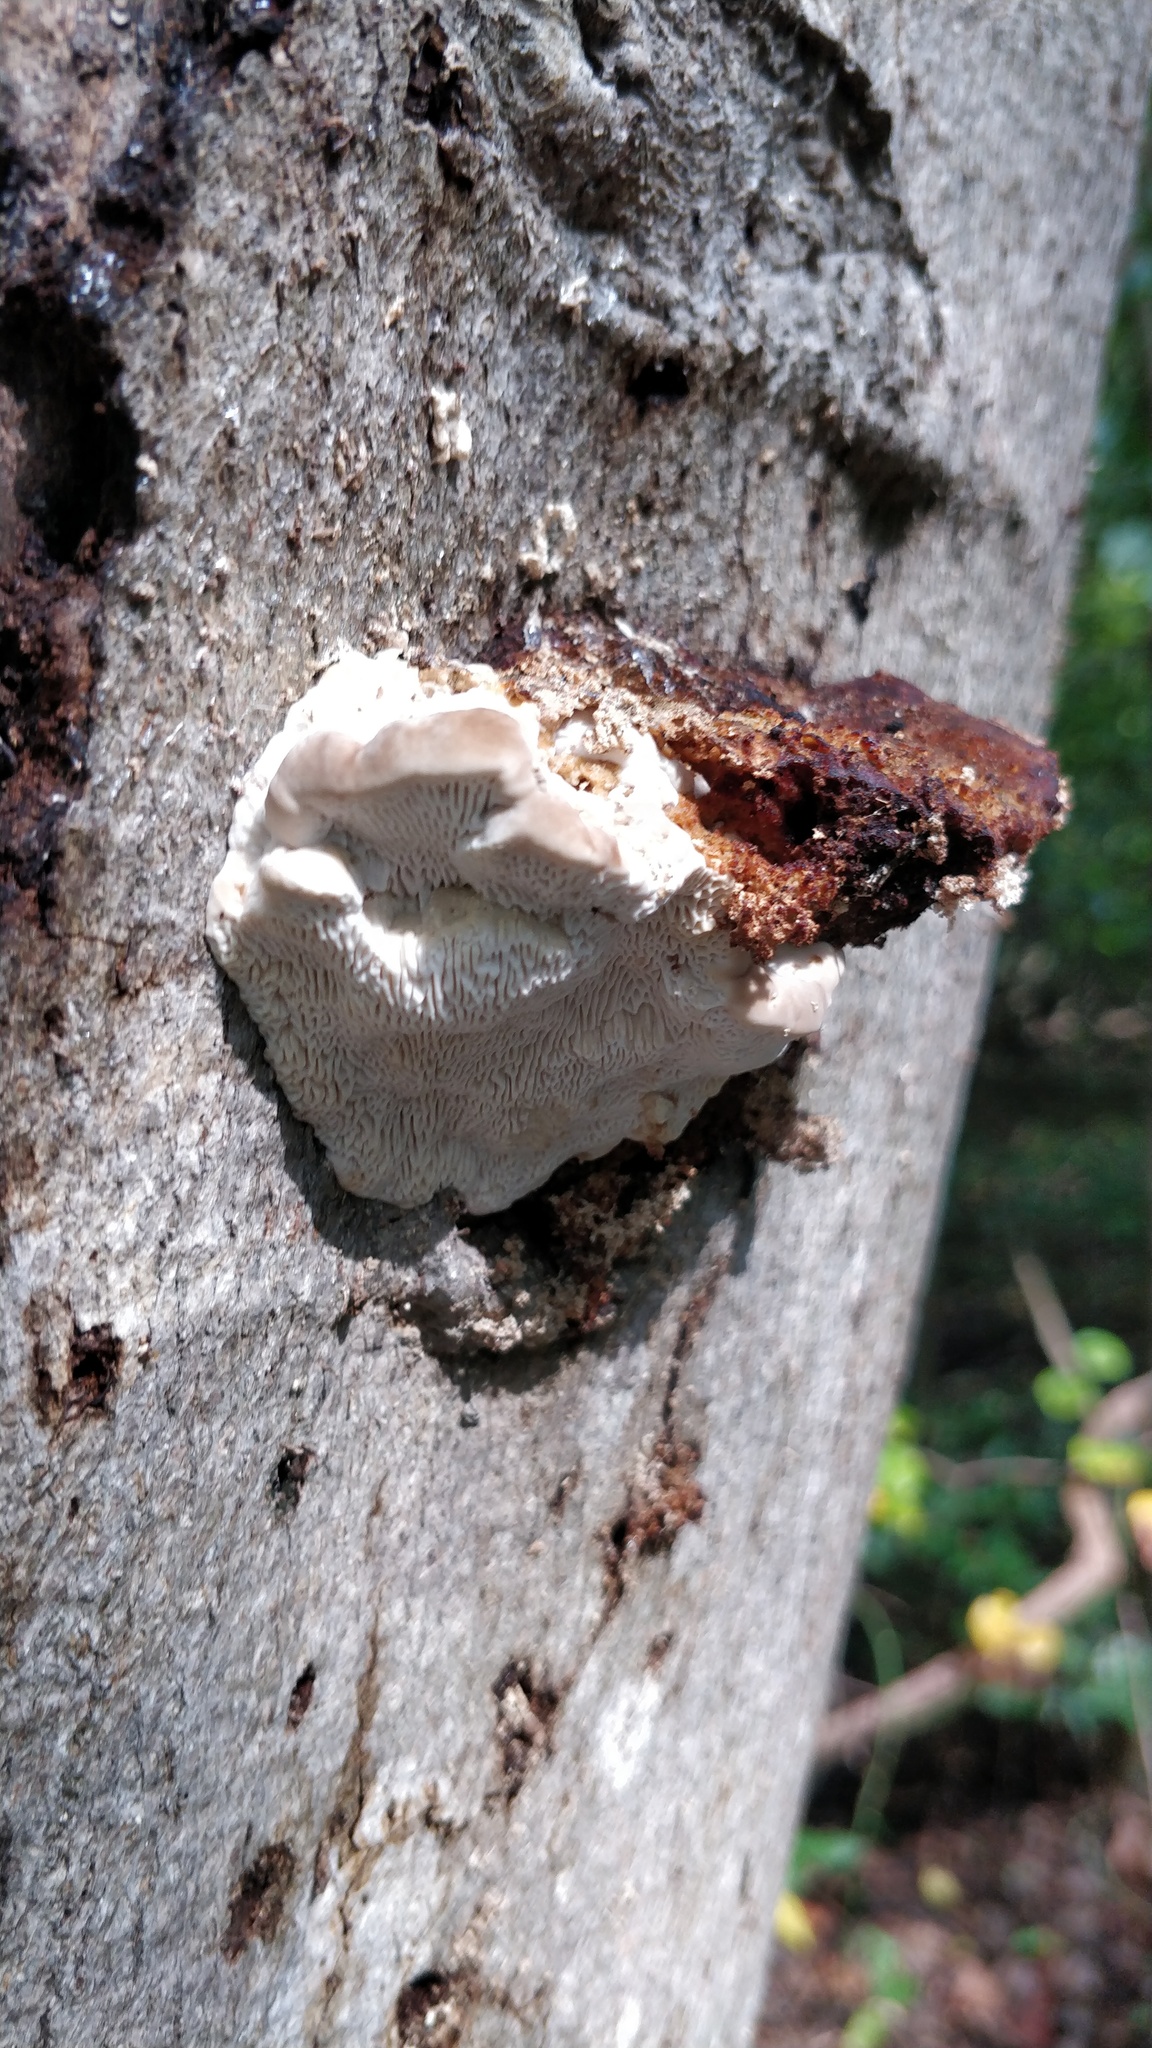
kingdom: Fungi
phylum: Basidiomycota
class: Agaricomycetes
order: Polyporales
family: Polyporaceae
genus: Lenzites
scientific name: Lenzites betulinus
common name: Birch mazegill
